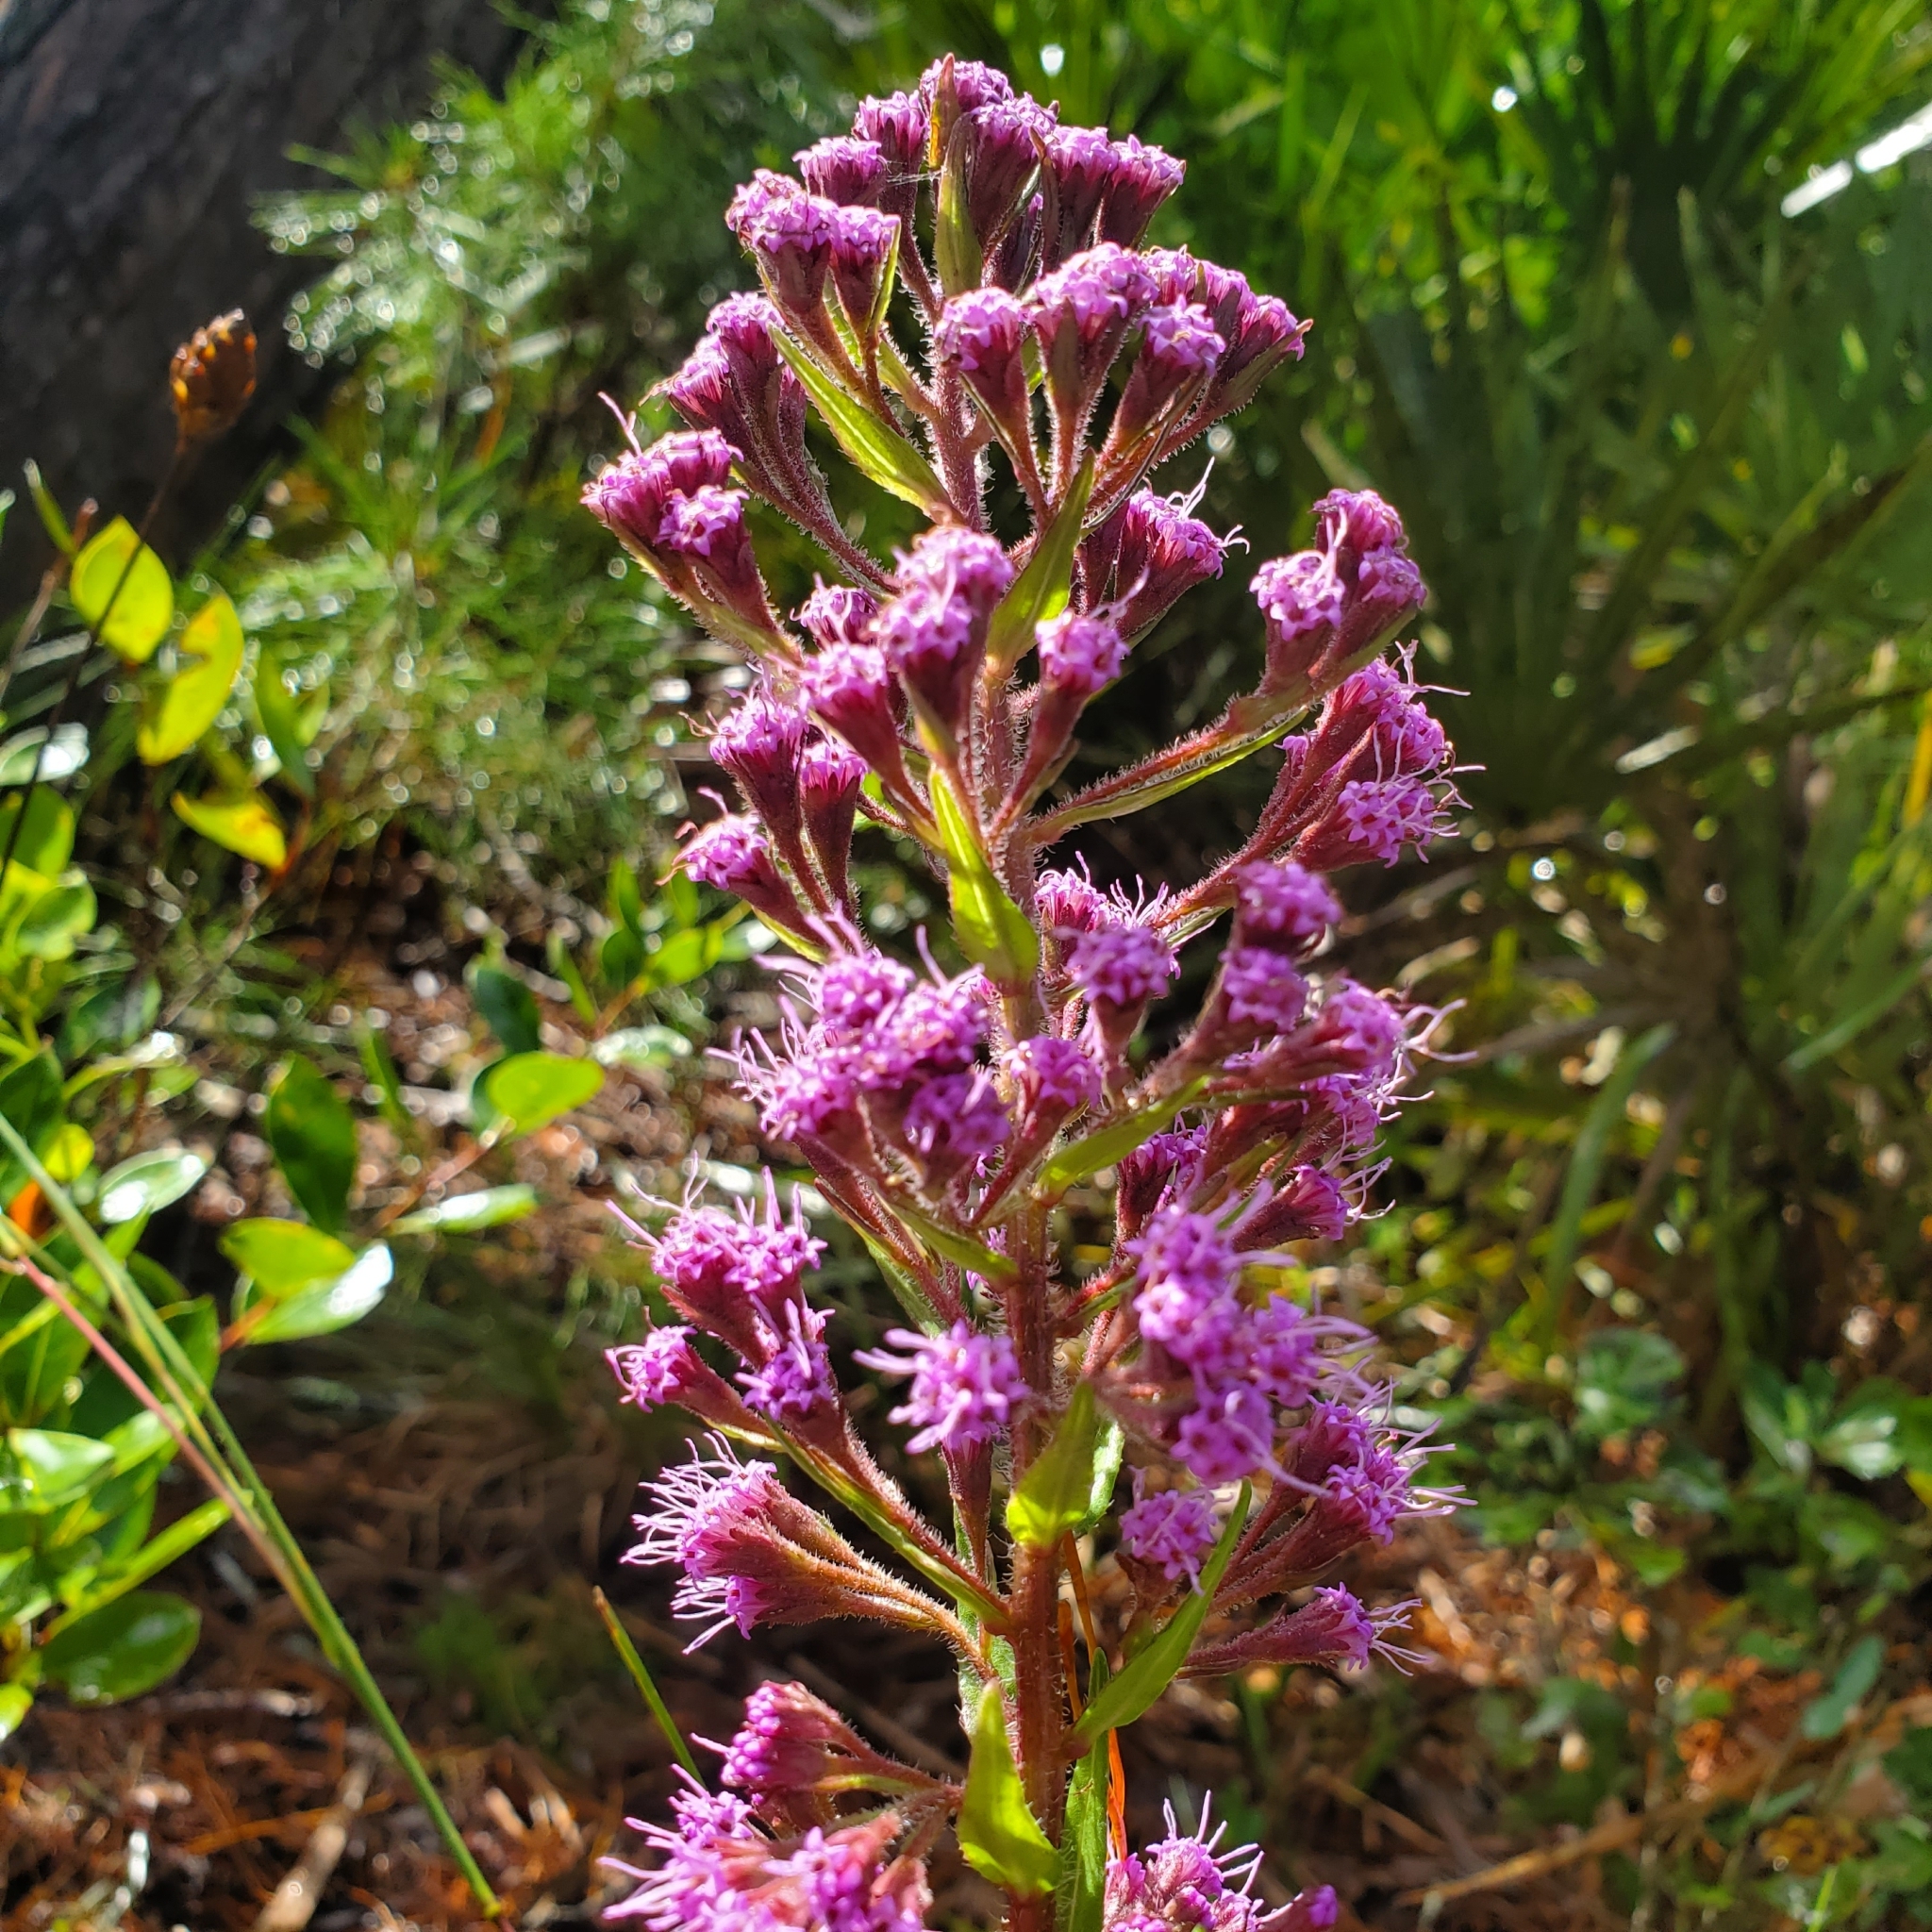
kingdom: Plantae
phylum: Tracheophyta
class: Magnoliopsida
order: Asterales
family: Asteraceae
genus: Carphephorus
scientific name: Carphephorus paniculatus
